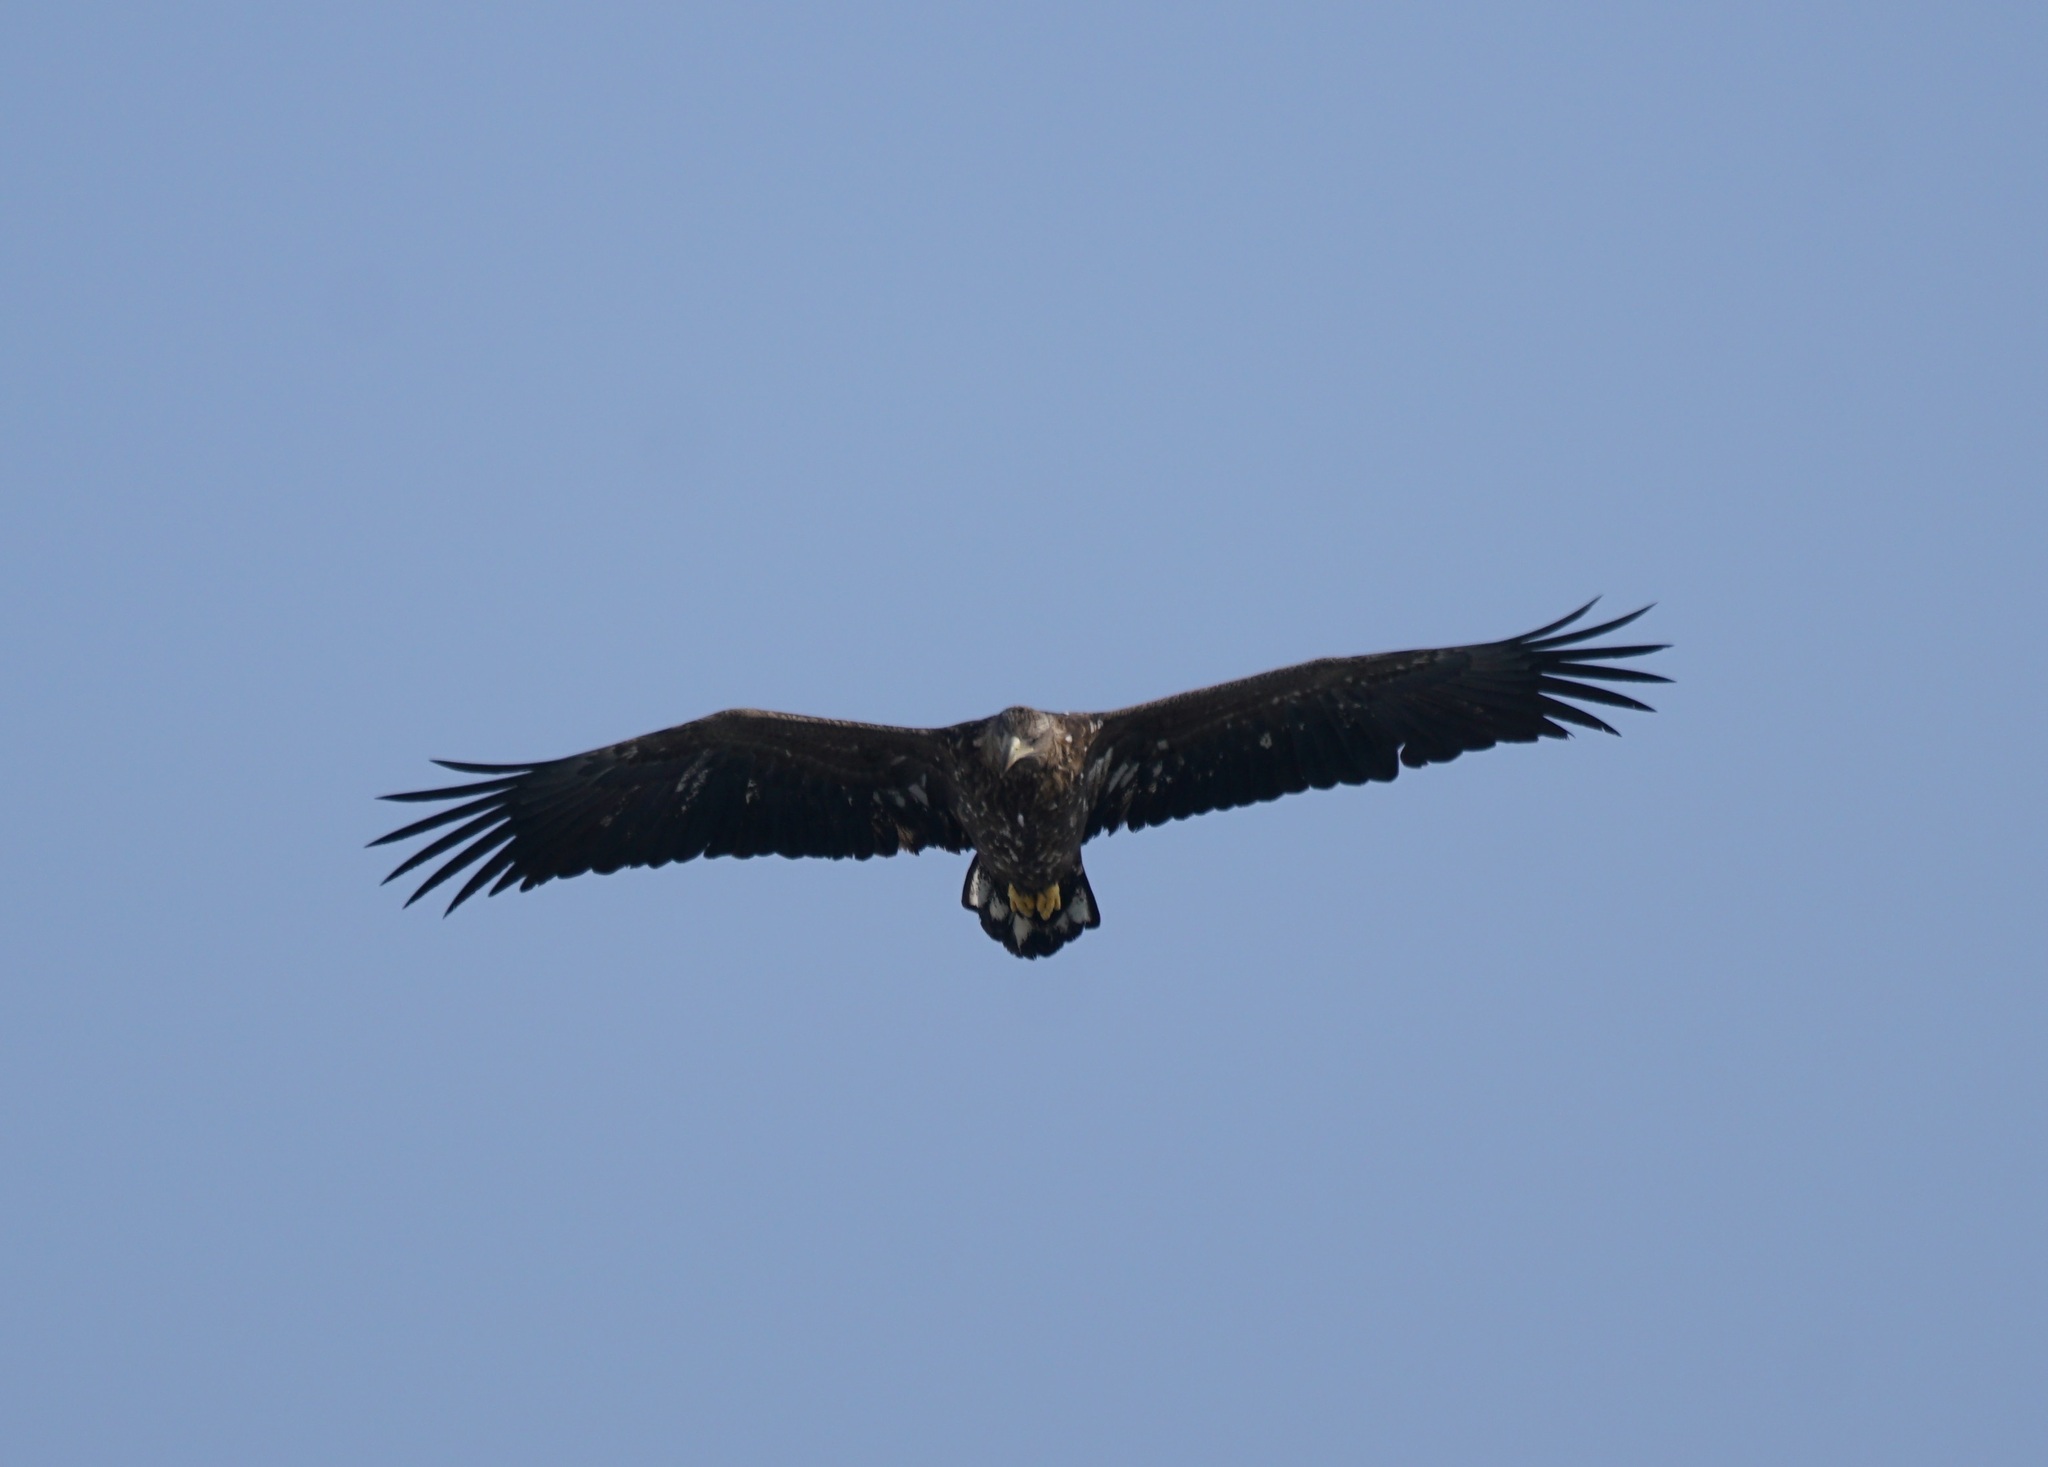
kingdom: Animalia
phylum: Chordata
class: Aves
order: Accipitriformes
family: Accipitridae
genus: Haliaeetus
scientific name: Haliaeetus albicilla
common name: White-tailed eagle
